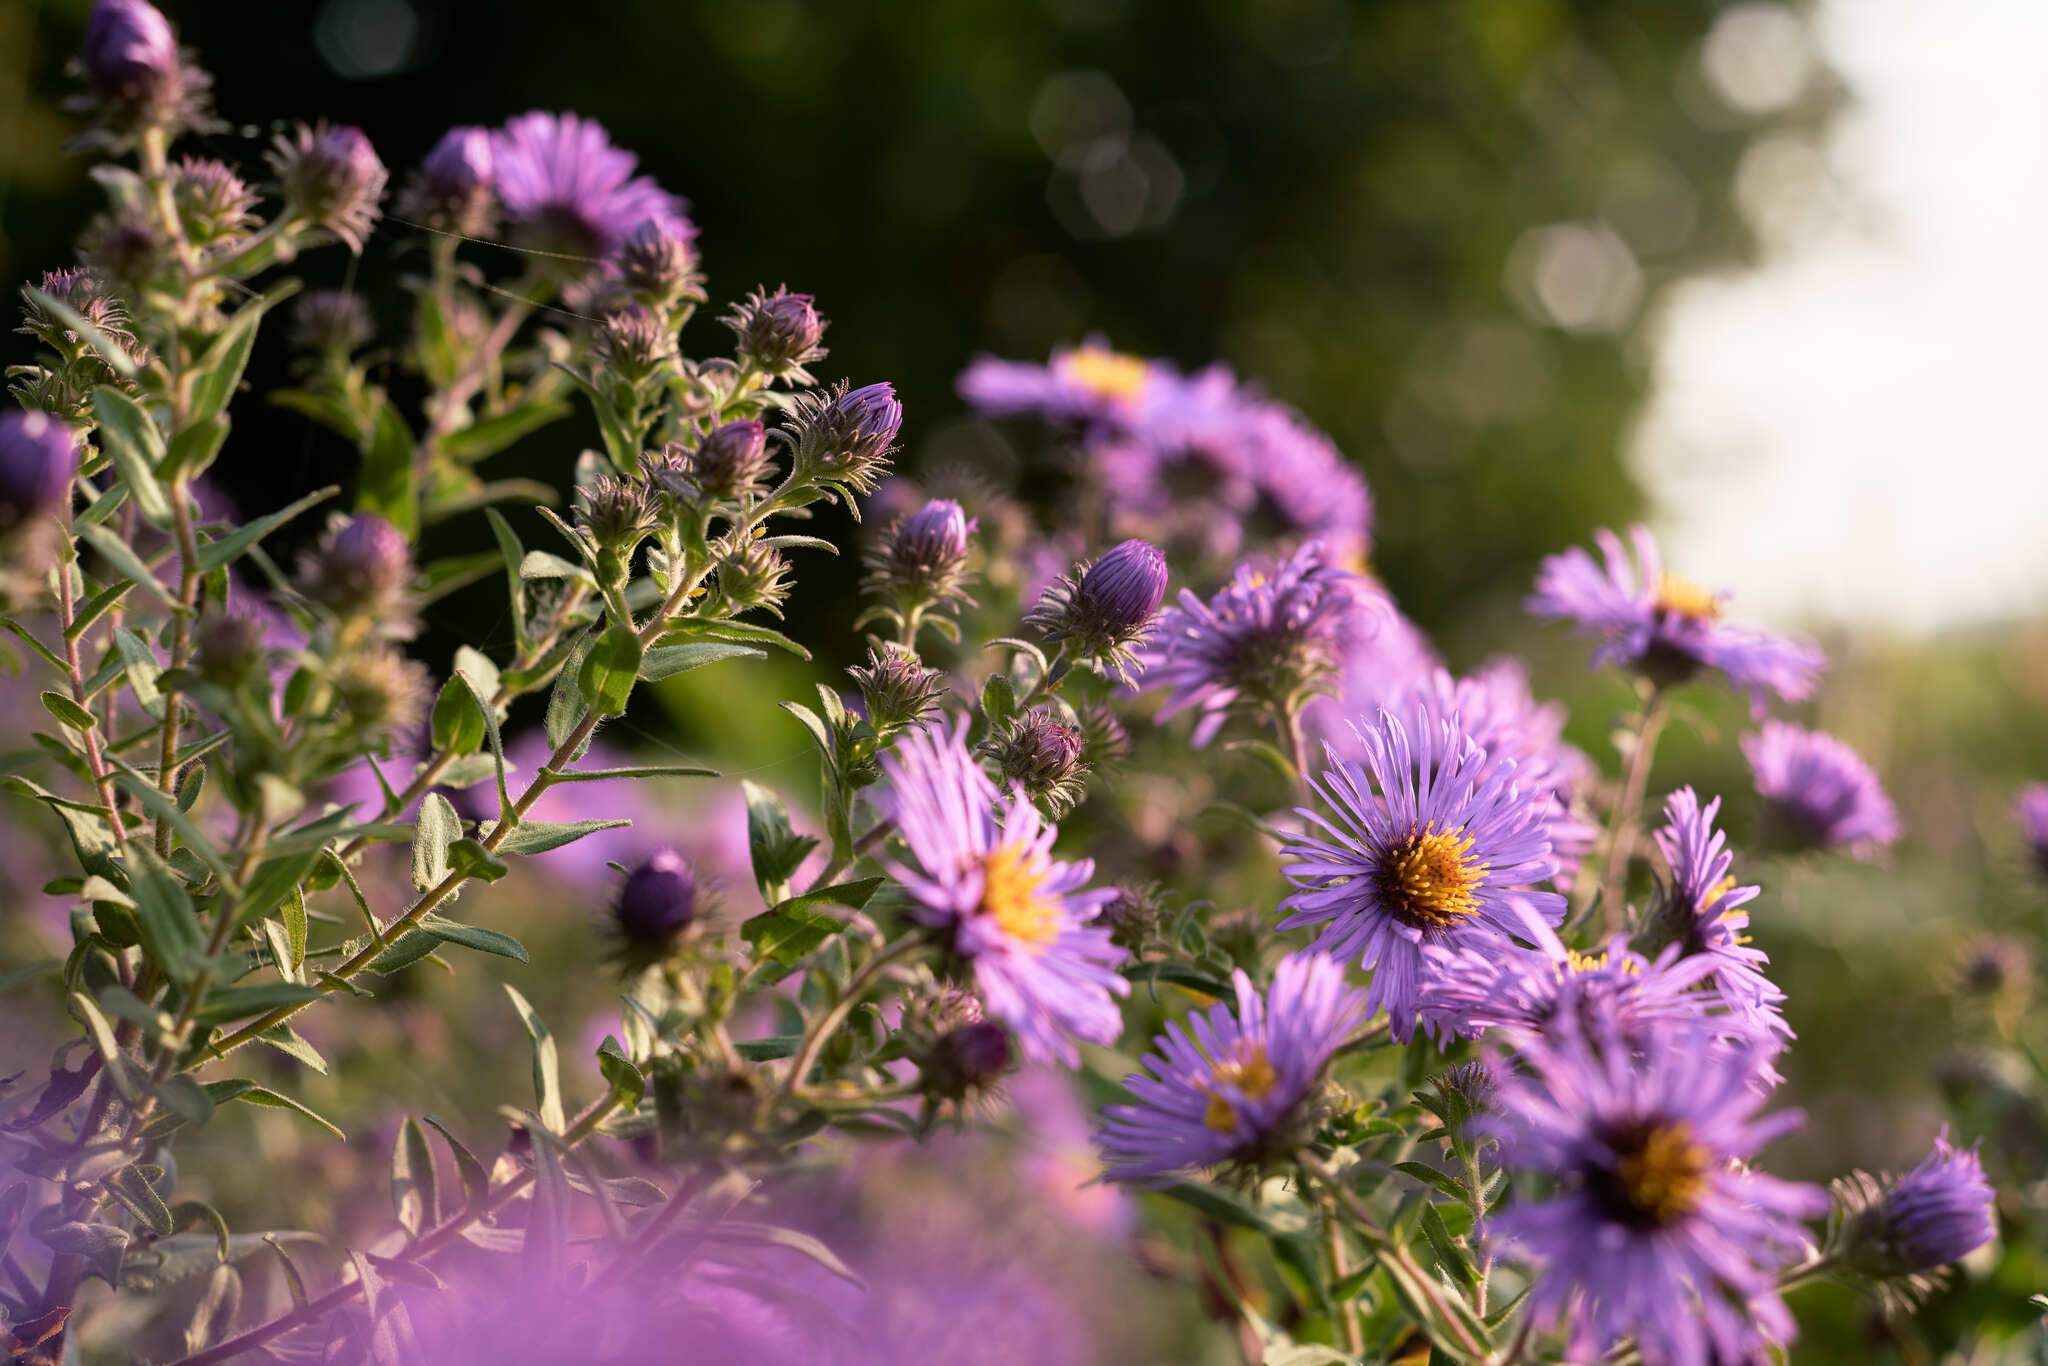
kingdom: Plantae
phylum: Tracheophyta
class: Magnoliopsida
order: Asterales
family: Asteraceae
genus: Symphyotrichum
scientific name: Symphyotrichum novae-angliae
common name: Michaelmas daisy
